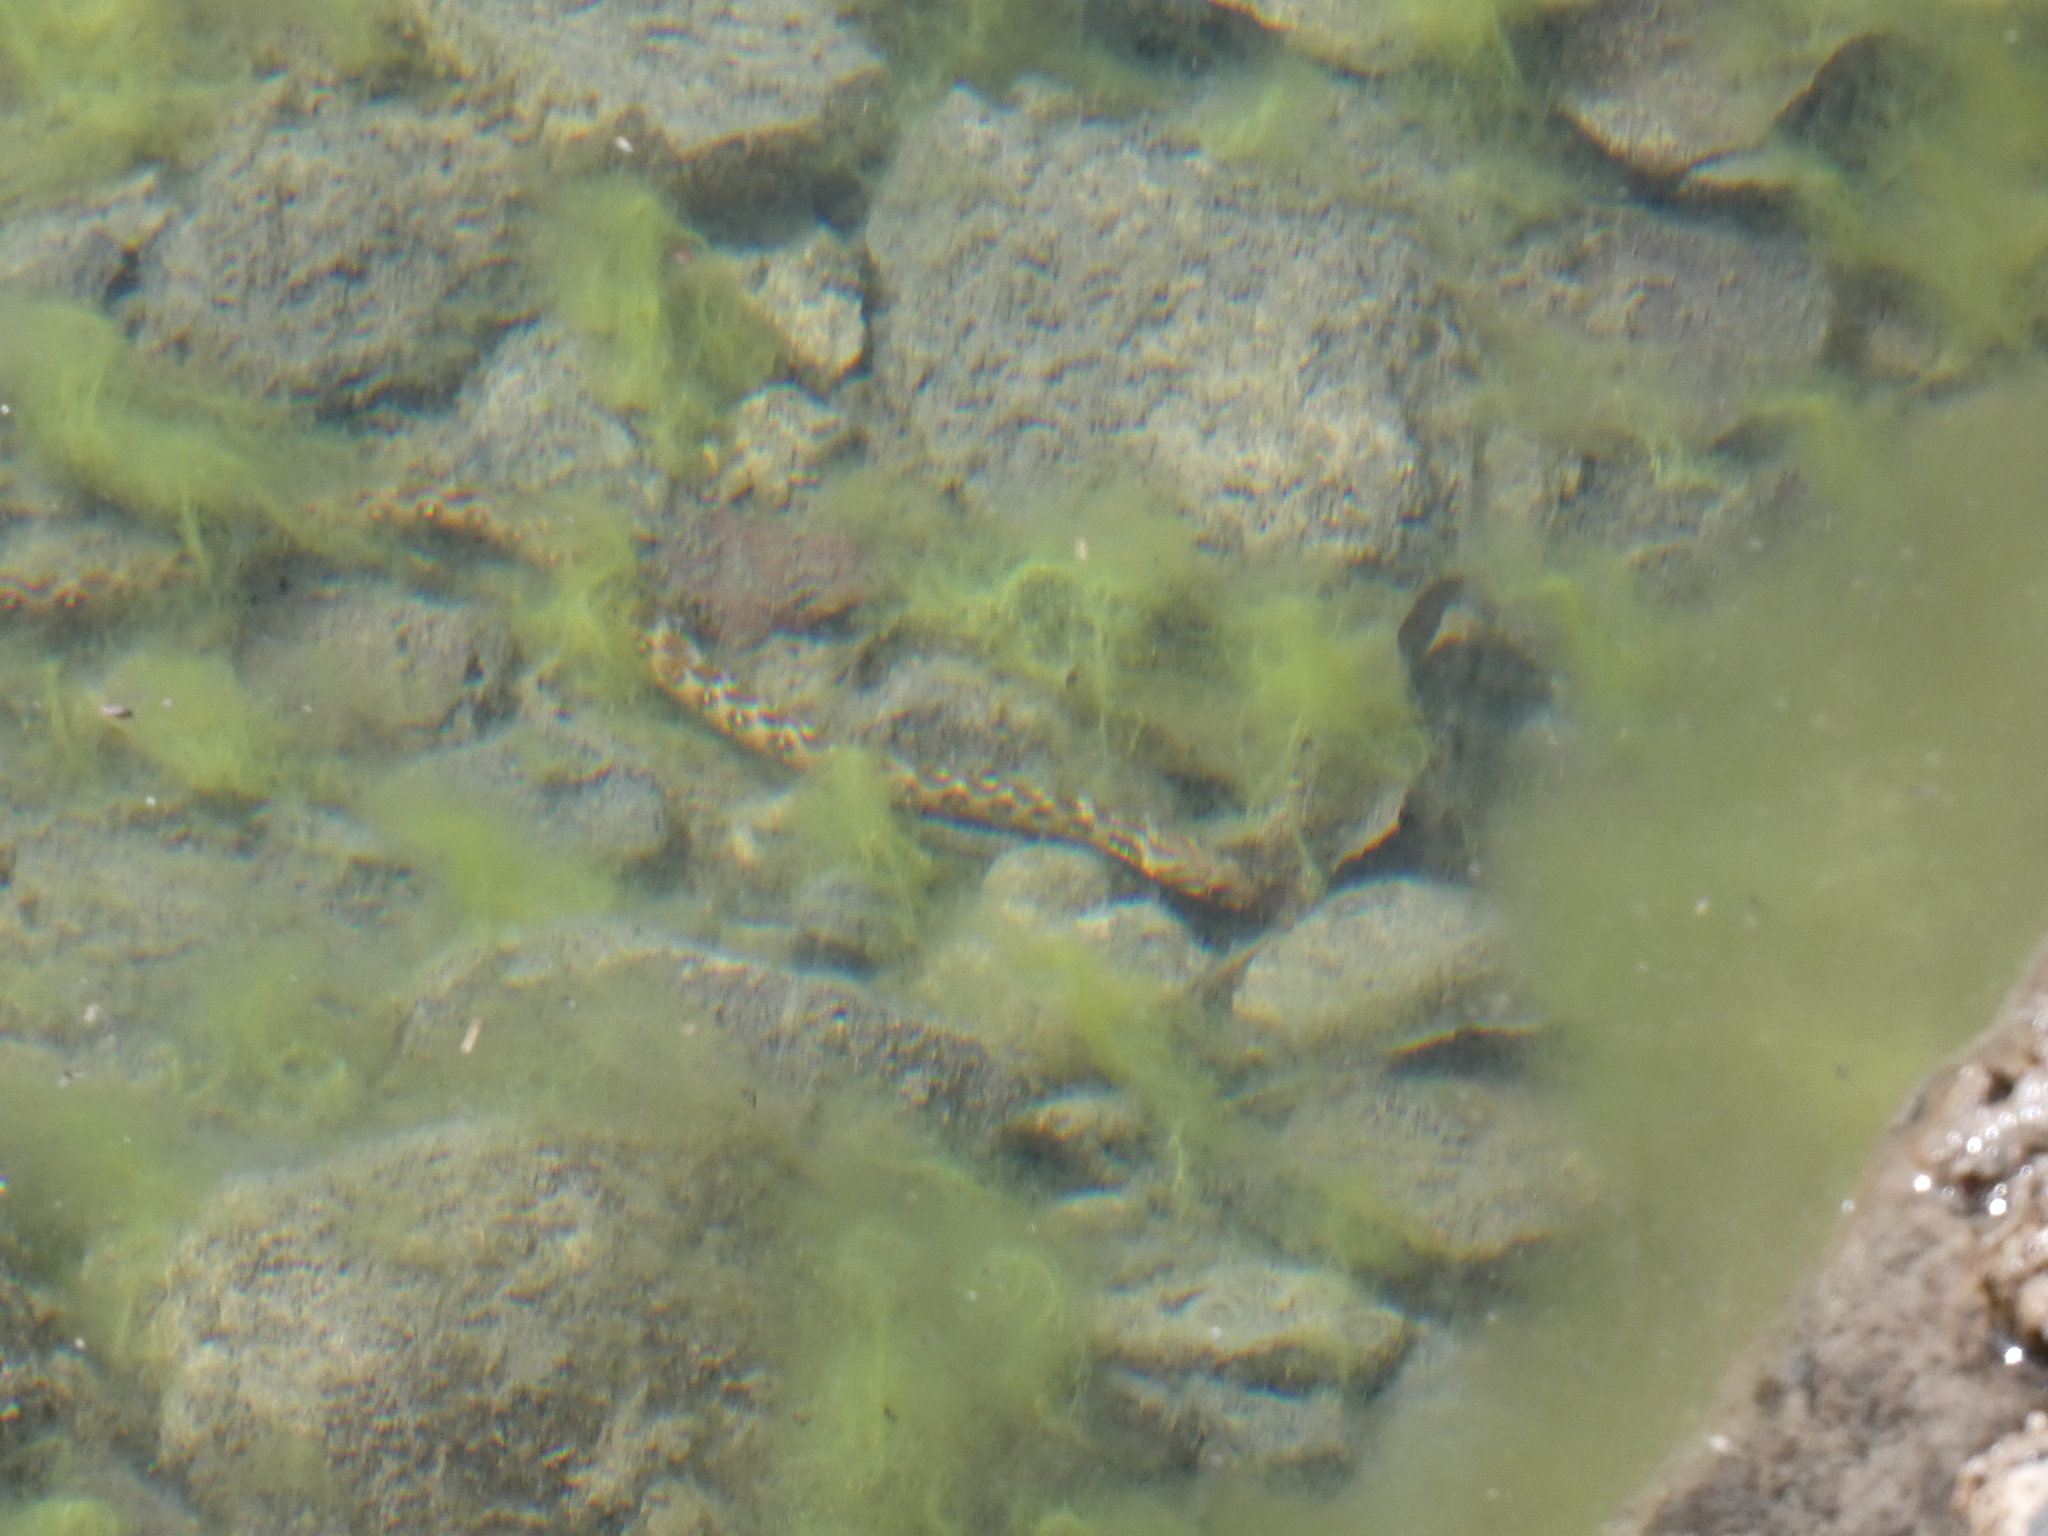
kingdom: Animalia
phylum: Chordata
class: Squamata
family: Colubridae
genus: Natrix
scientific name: Natrix maura
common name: Viperine water snake
